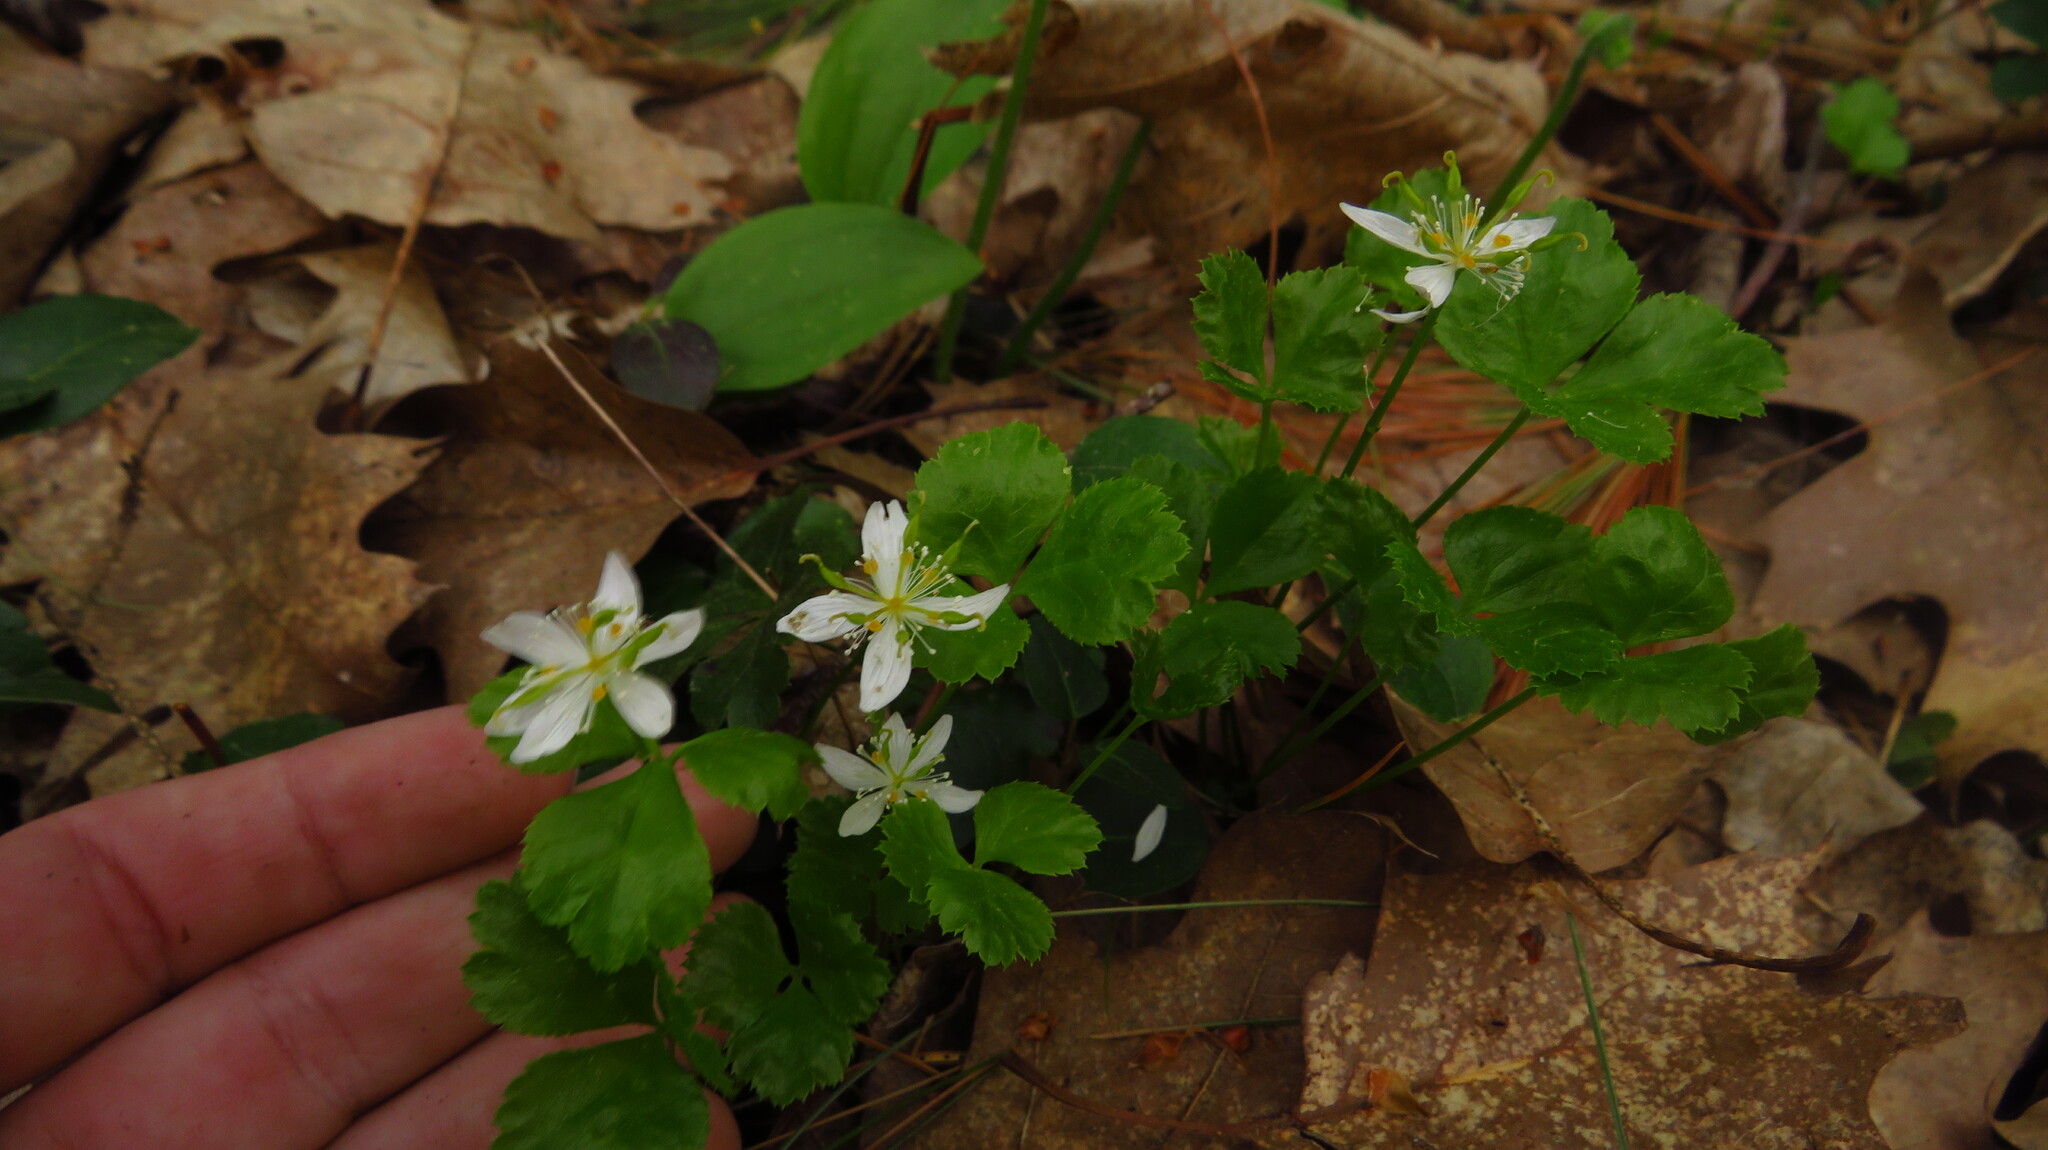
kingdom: Plantae
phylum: Tracheophyta
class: Magnoliopsida
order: Ranunculales
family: Ranunculaceae
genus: Coptis
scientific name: Coptis trifolia
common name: Canker-root
